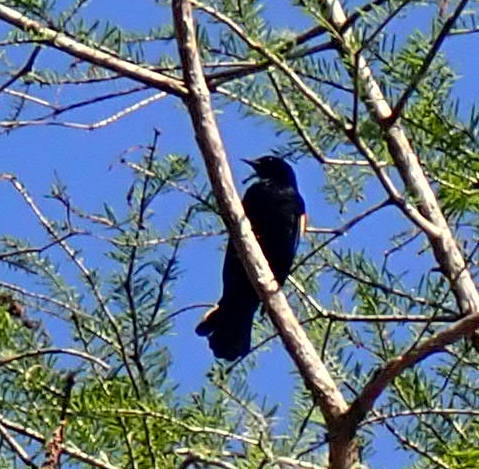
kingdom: Animalia
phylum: Chordata
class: Aves
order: Passeriformes
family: Icteridae
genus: Agelaius
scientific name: Agelaius phoeniceus
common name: Red-winged blackbird
